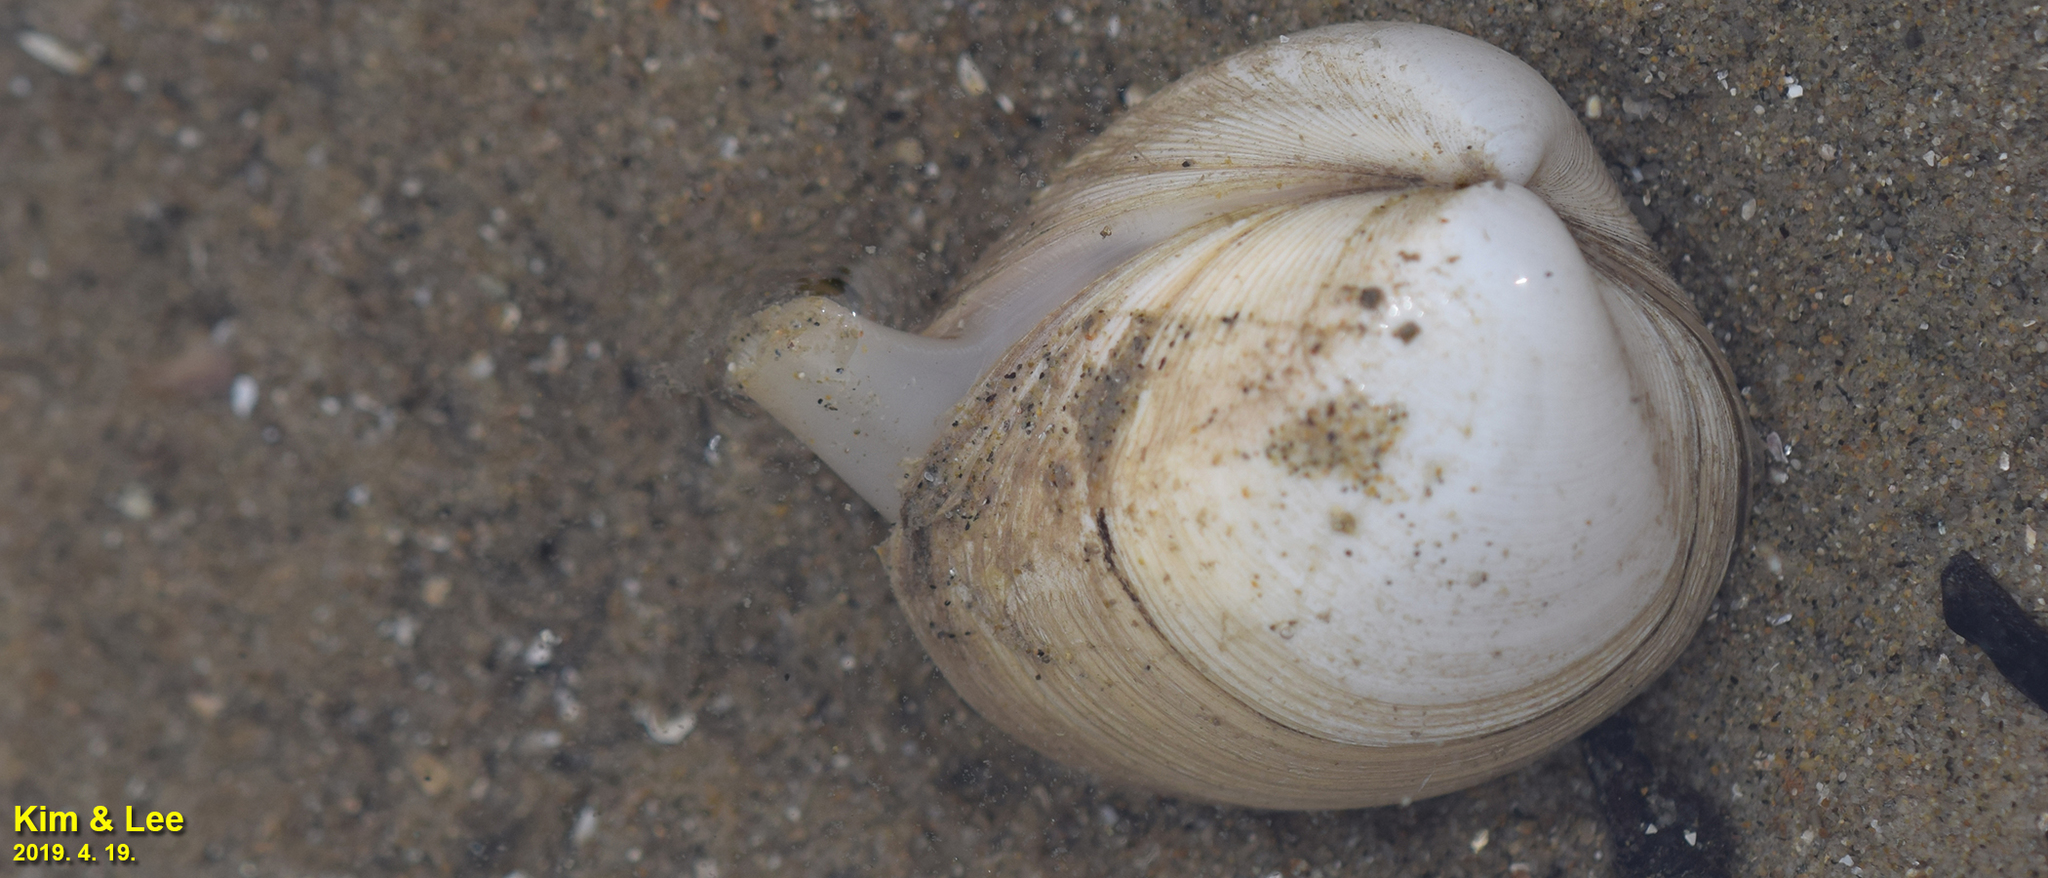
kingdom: Animalia
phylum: Mollusca
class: Bivalvia
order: Venerida
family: Mactridae
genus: Mactra
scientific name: Mactra quadrangularis
